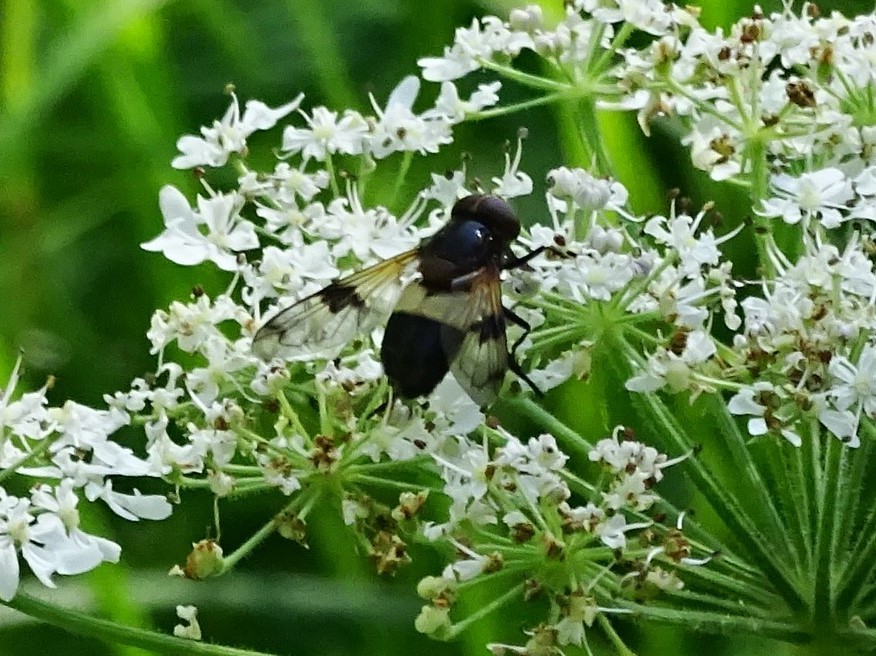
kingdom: Animalia
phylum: Arthropoda
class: Insecta
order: Diptera
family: Syrphidae
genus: Volucella
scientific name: Volucella pellucens
